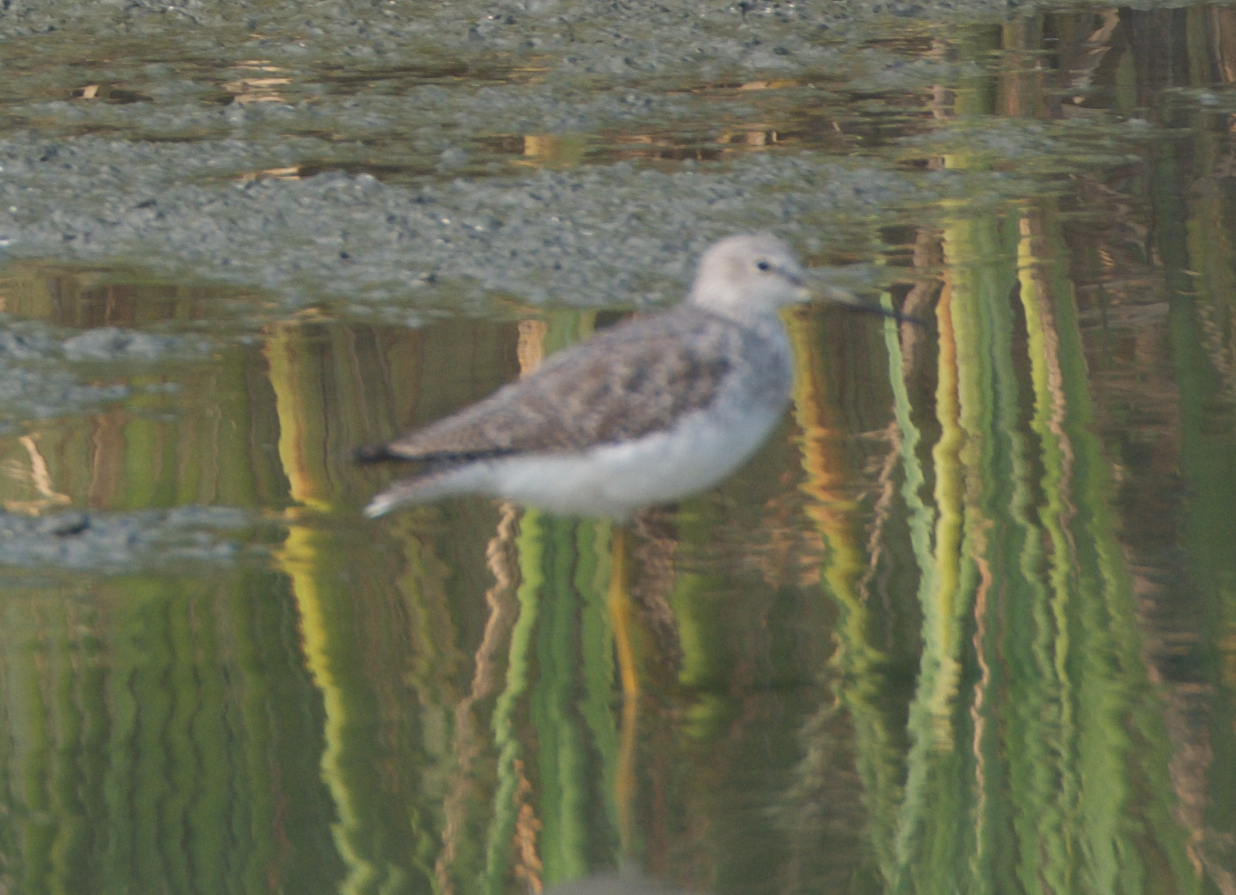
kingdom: Animalia
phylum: Chordata
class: Aves
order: Charadriiformes
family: Scolopacidae
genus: Tringa
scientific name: Tringa melanoleuca
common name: Greater yellowlegs
